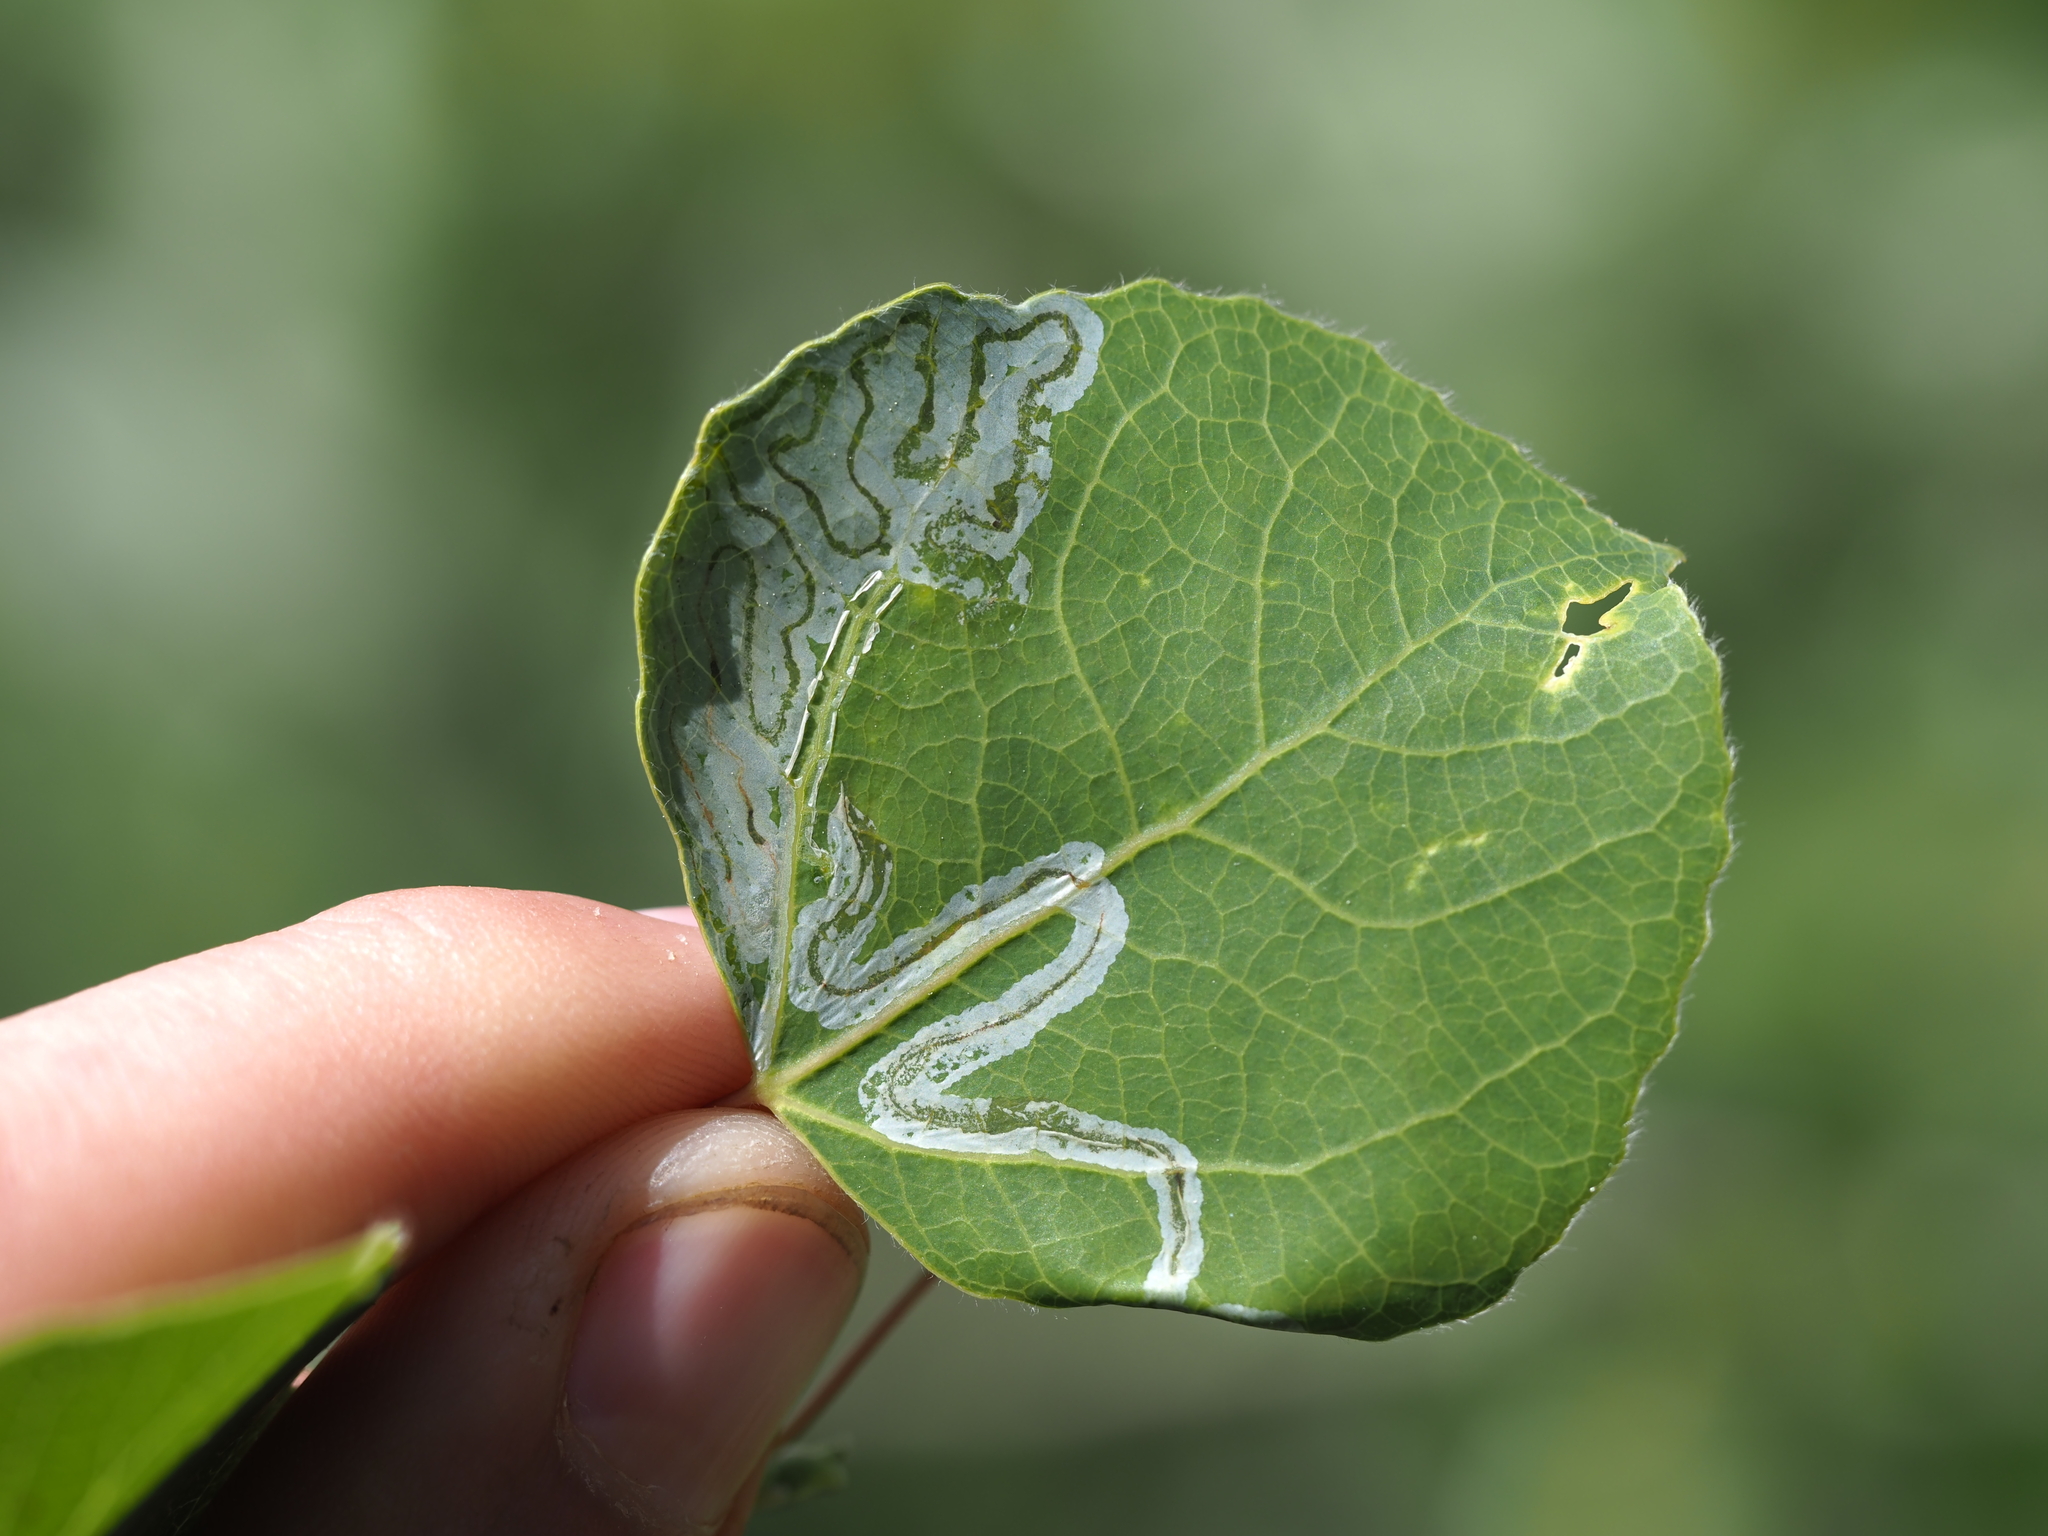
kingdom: Animalia
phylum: Arthropoda
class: Insecta
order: Lepidoptera
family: Gracillariidae
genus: Phyllocnistis
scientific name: Phyllocnistis populiella
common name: Aspen serpentine leafminer moth
